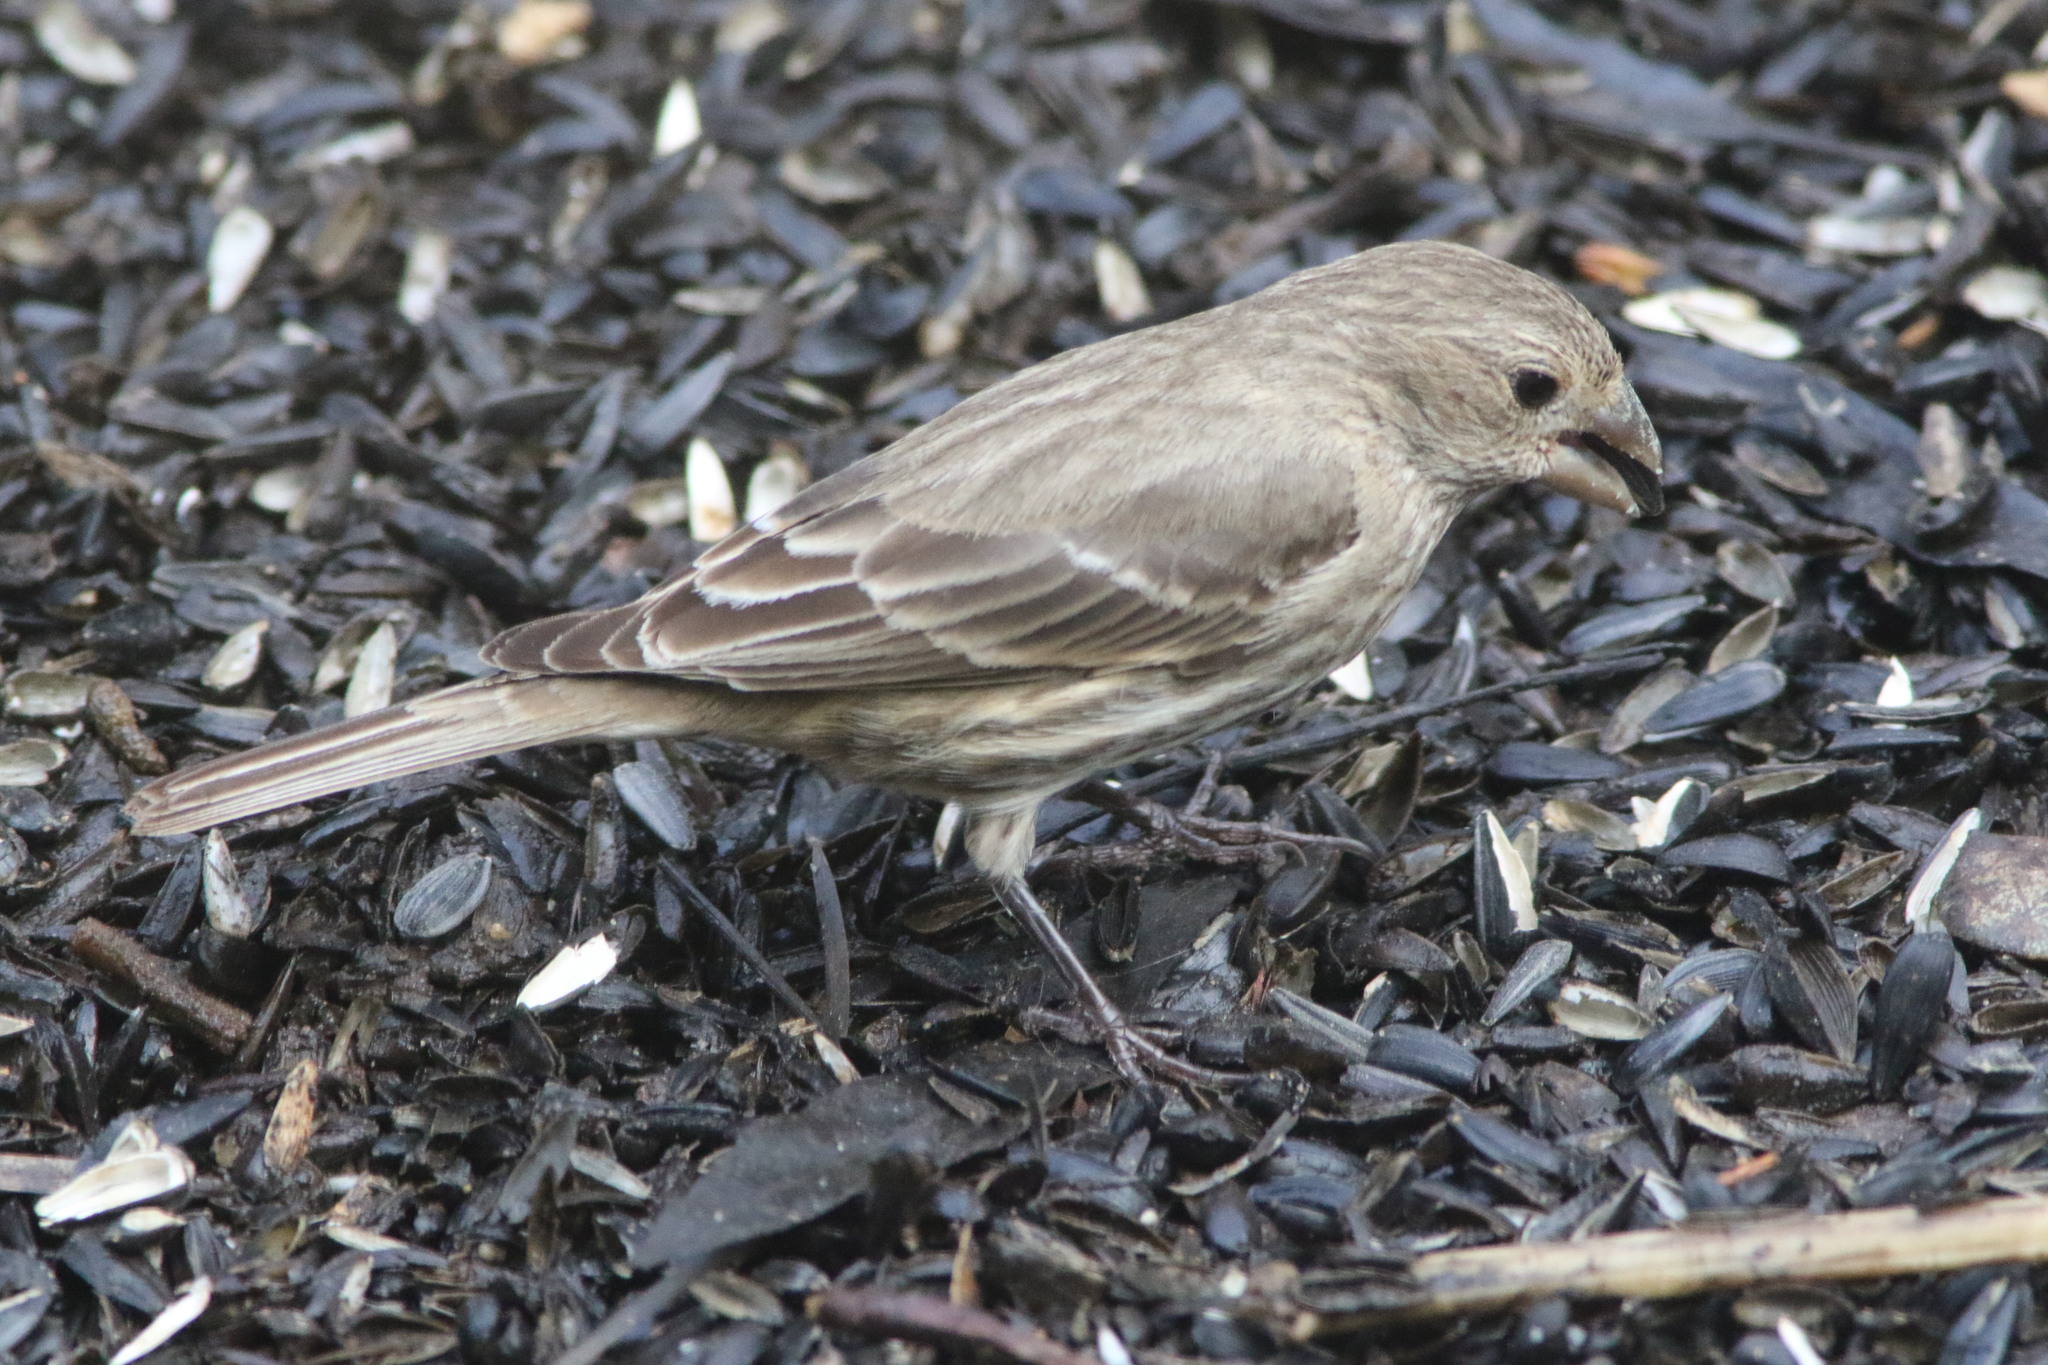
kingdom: Animalia
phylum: Chordata
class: Aves
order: Passeriformes
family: Fringillidae
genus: Haemorhous
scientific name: Haemorhous mexicanus
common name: House finch
